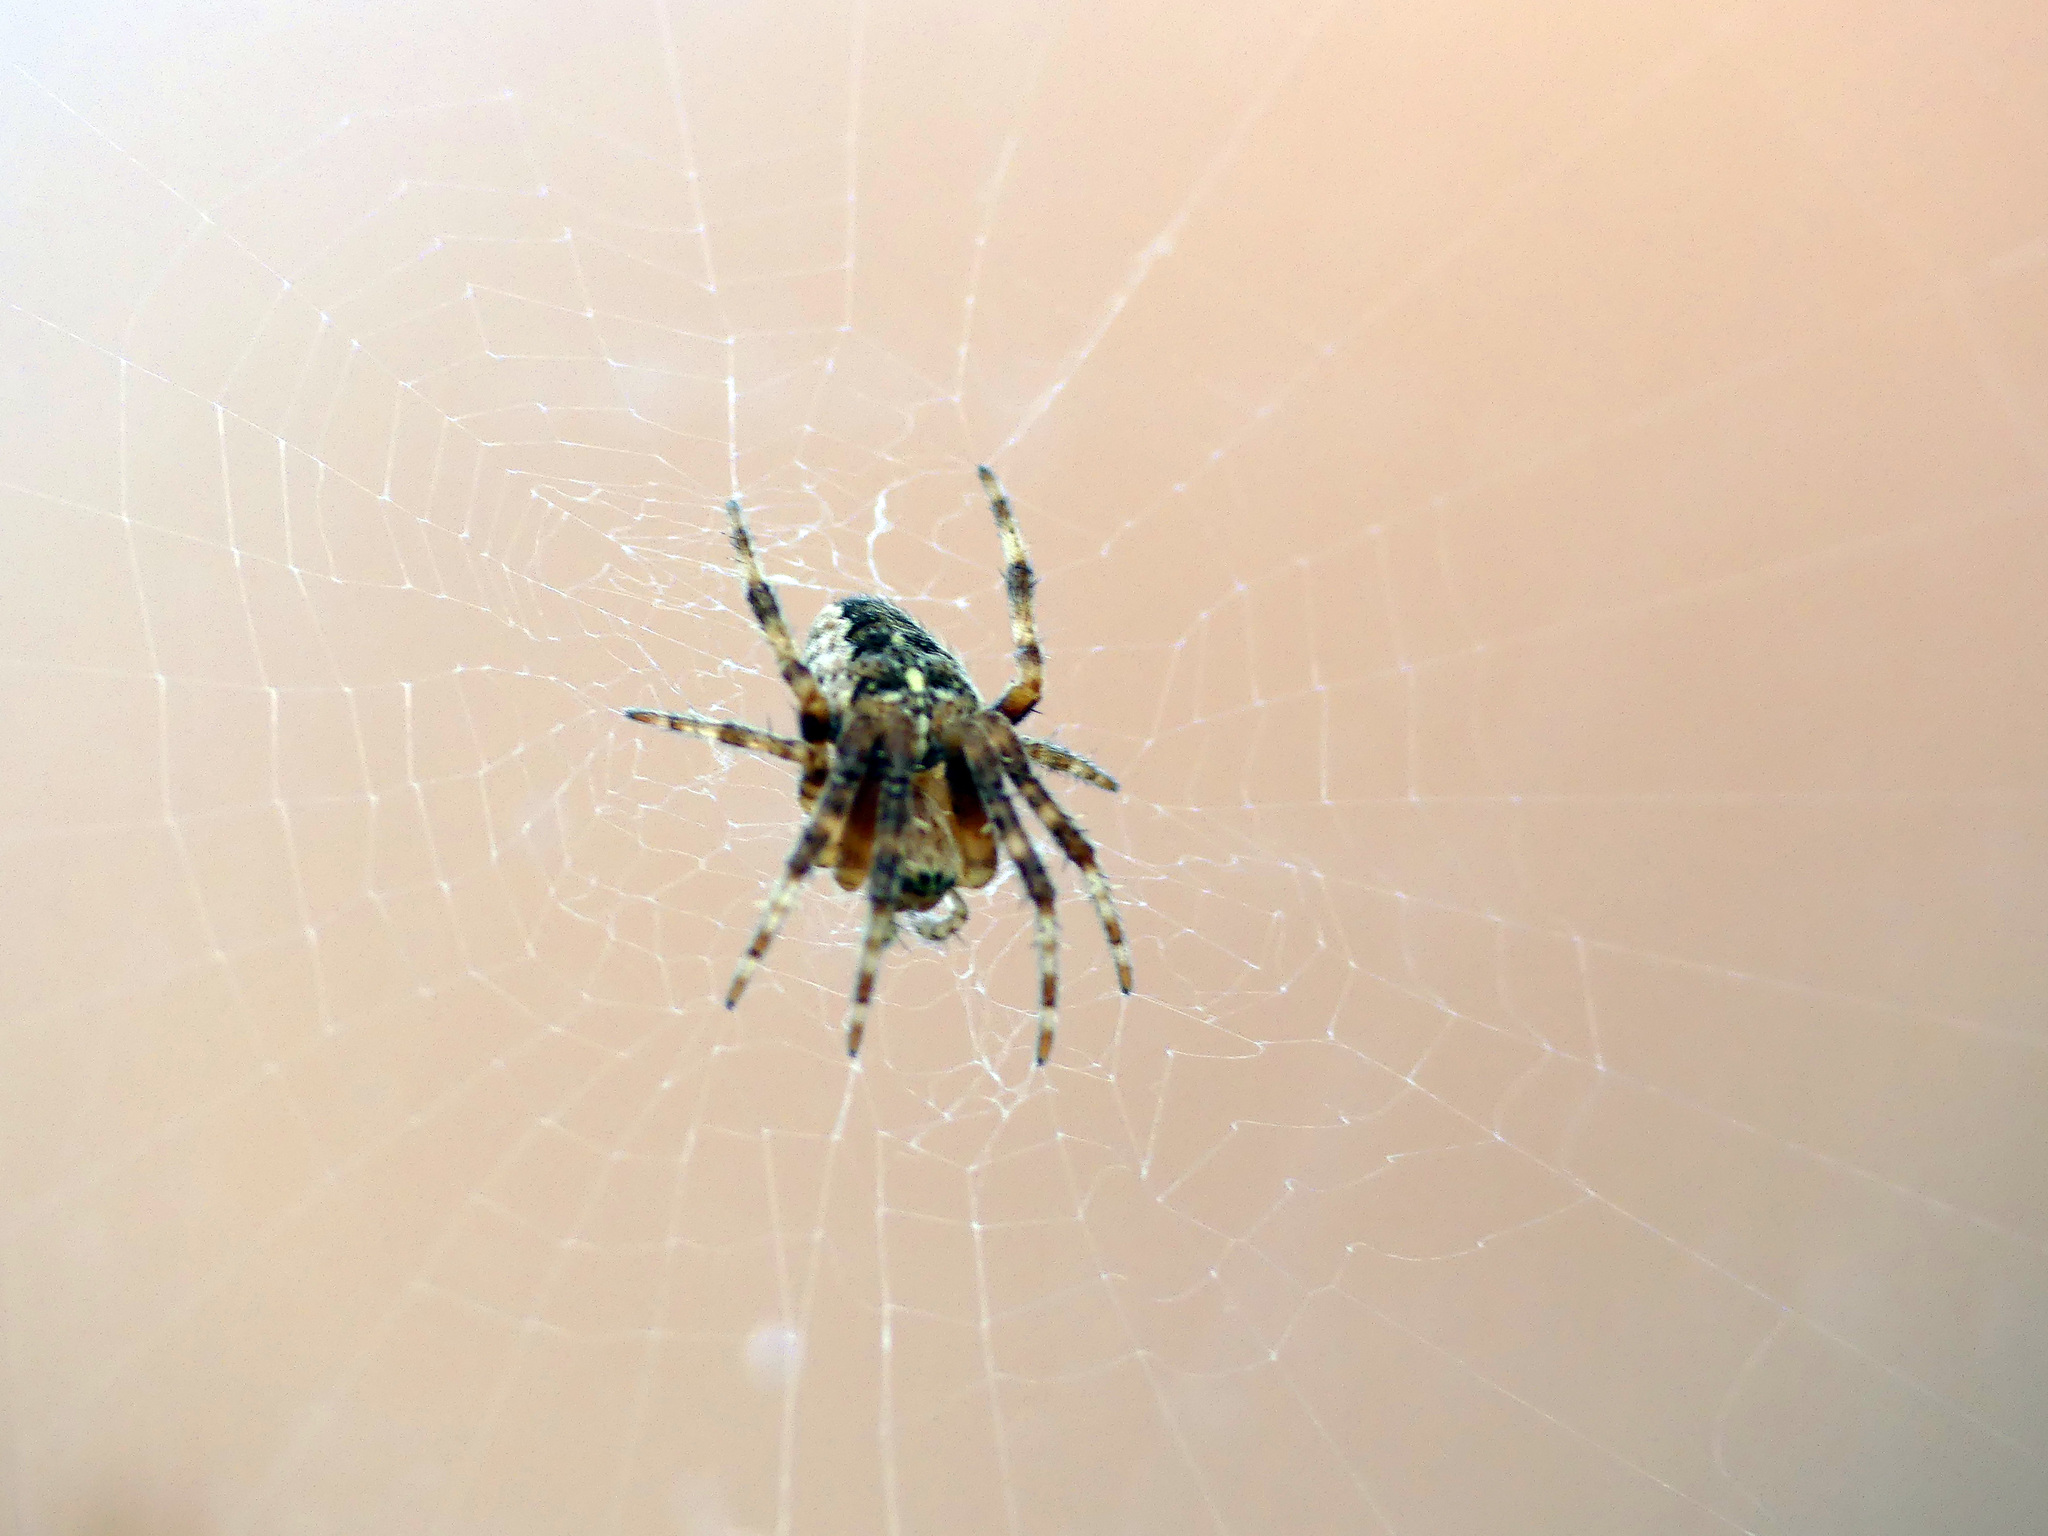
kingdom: Animalia
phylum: Arthropoda
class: Arachnida
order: Araneae
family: Araneidae
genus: Araneus
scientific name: Araneus diadematus
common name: Cross orbweaver
